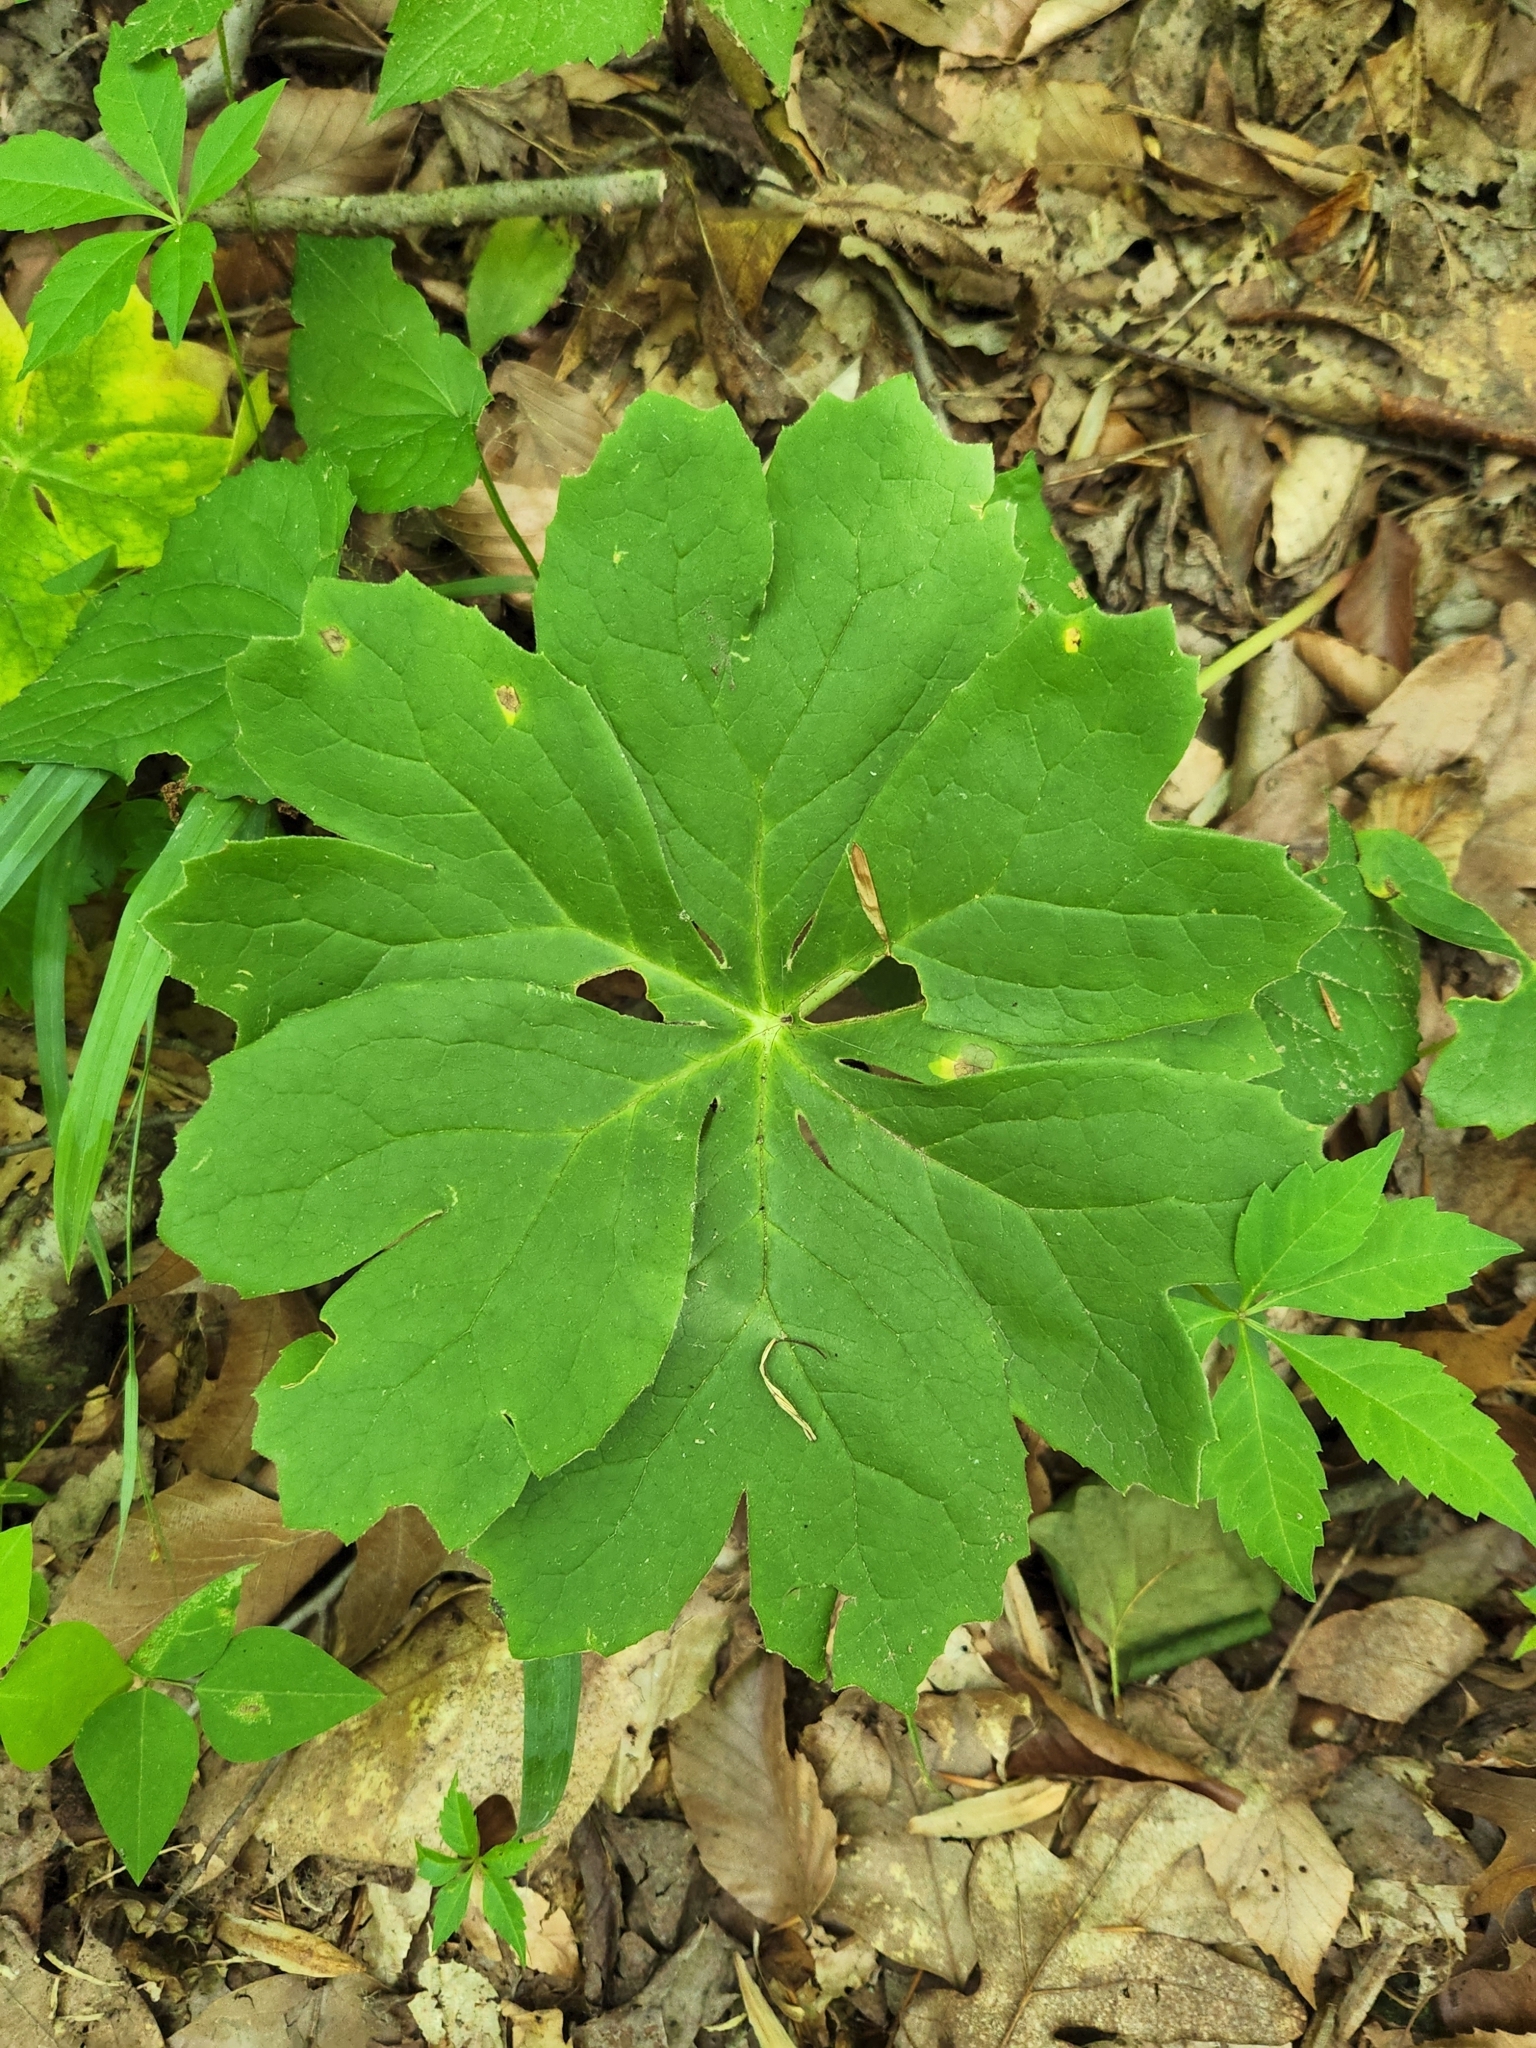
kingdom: Plantae
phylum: Tracheophyta
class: Magnoliopsida
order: Ranunculales
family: Berberidaceae
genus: Podophyllum
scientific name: Podophyllum peltatum
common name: Wild mandrake
